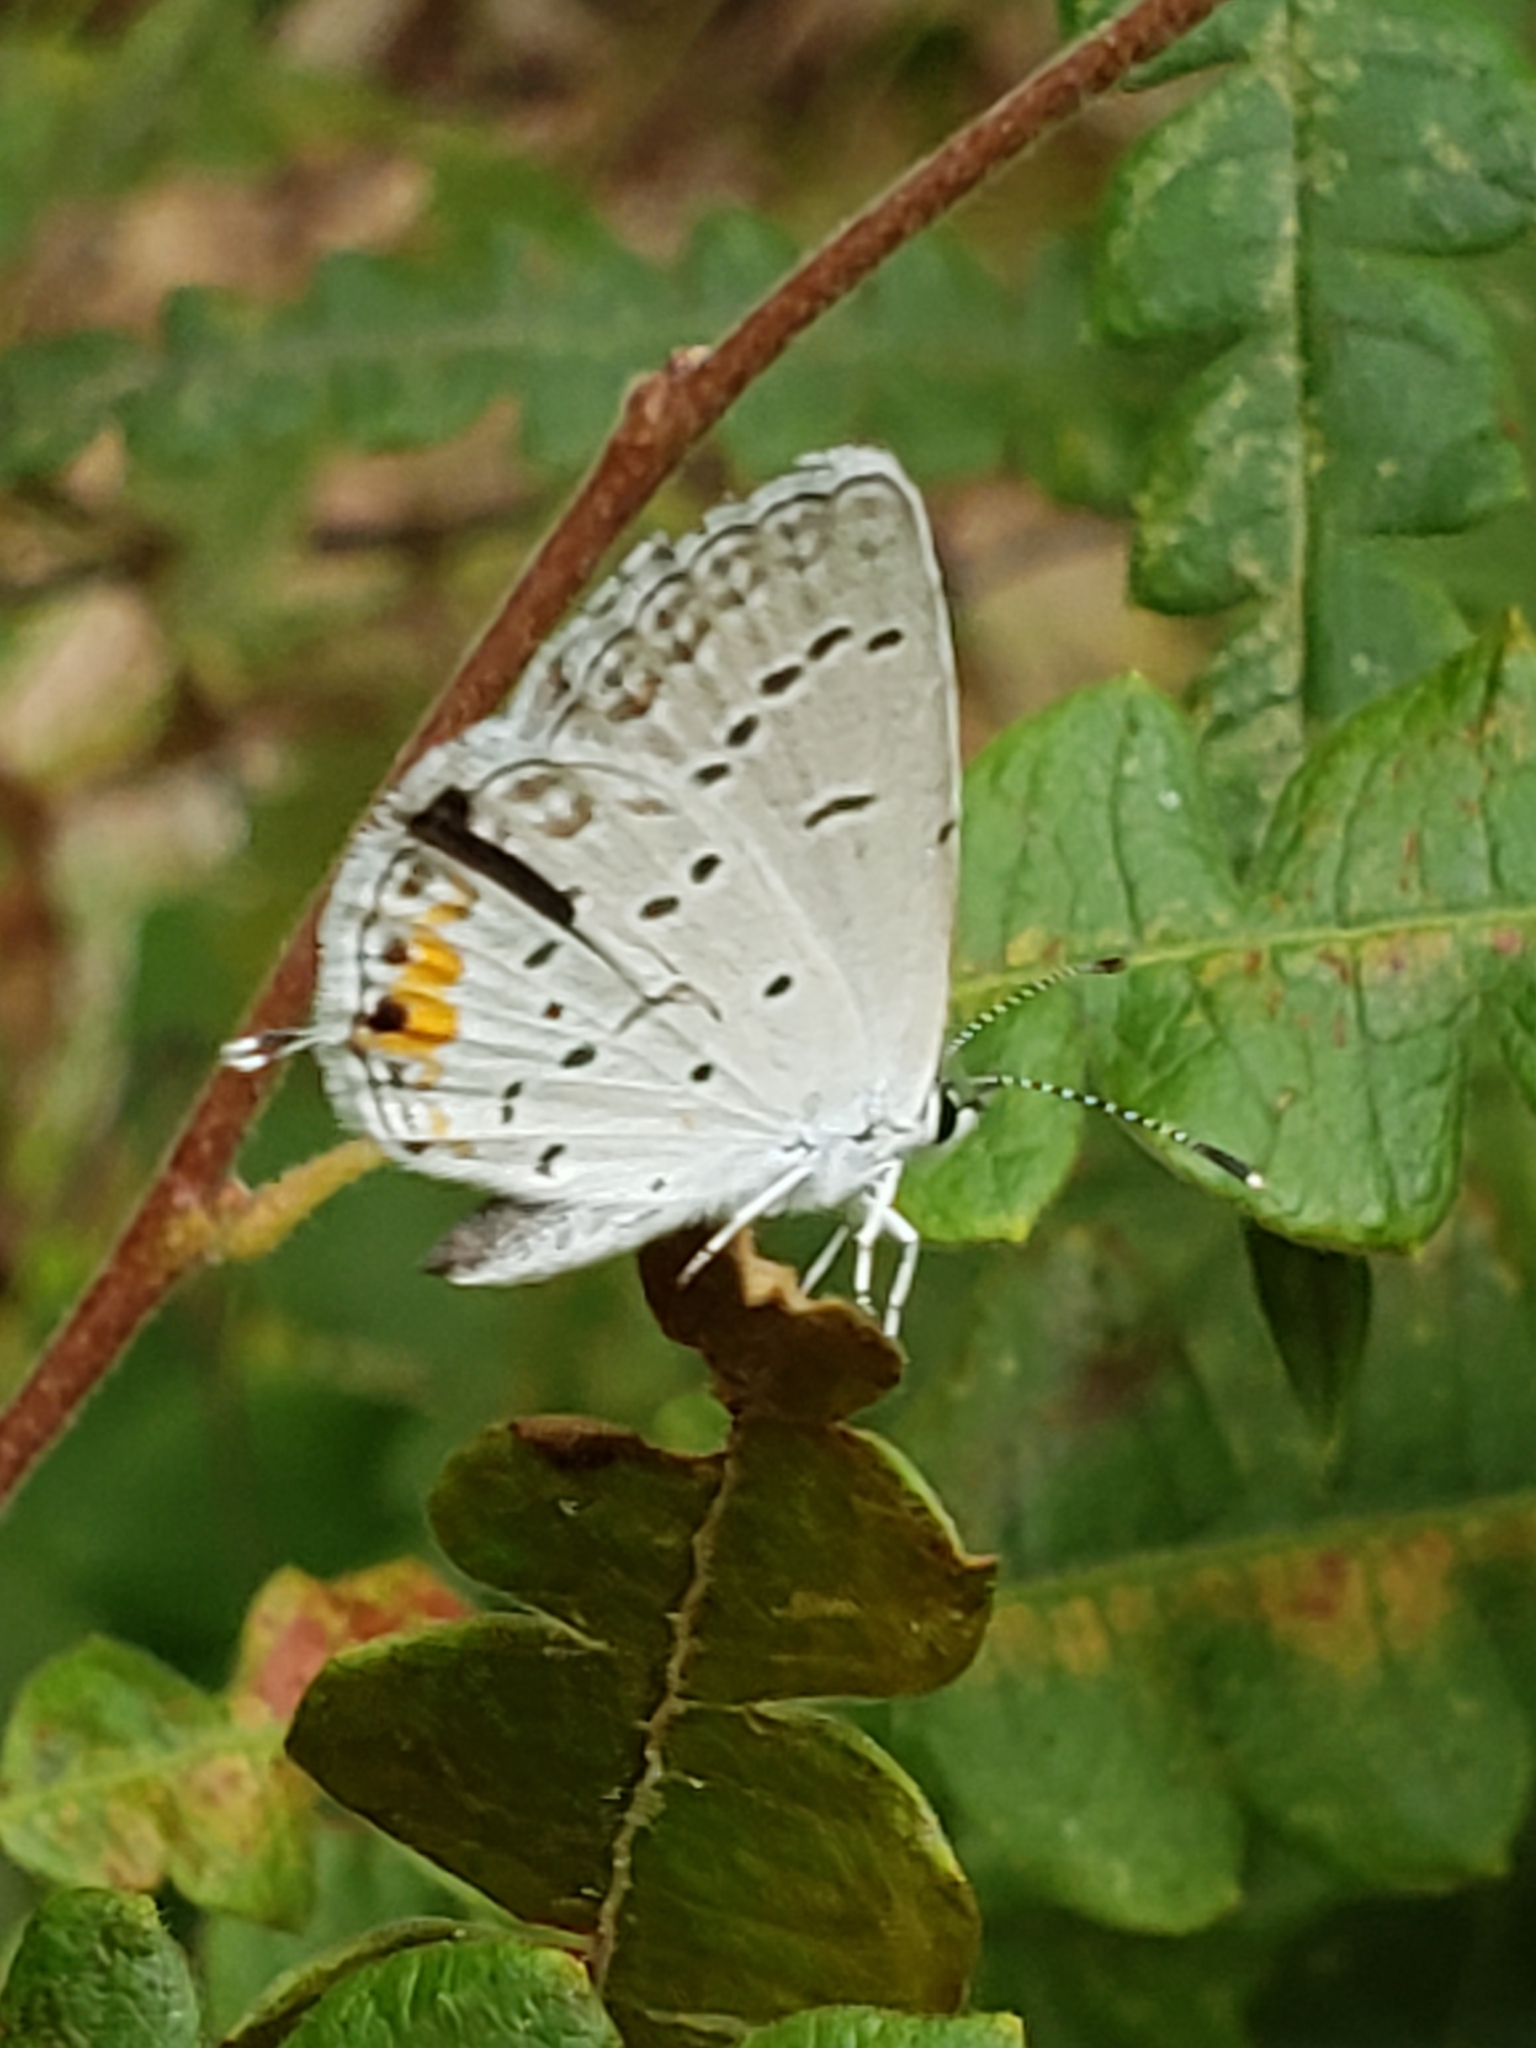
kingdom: Animalia
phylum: Arthropoda
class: Insecta
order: Lepidoptera
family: Lycaenidae
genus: Elkalyce
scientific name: Elkalyce comyntas
